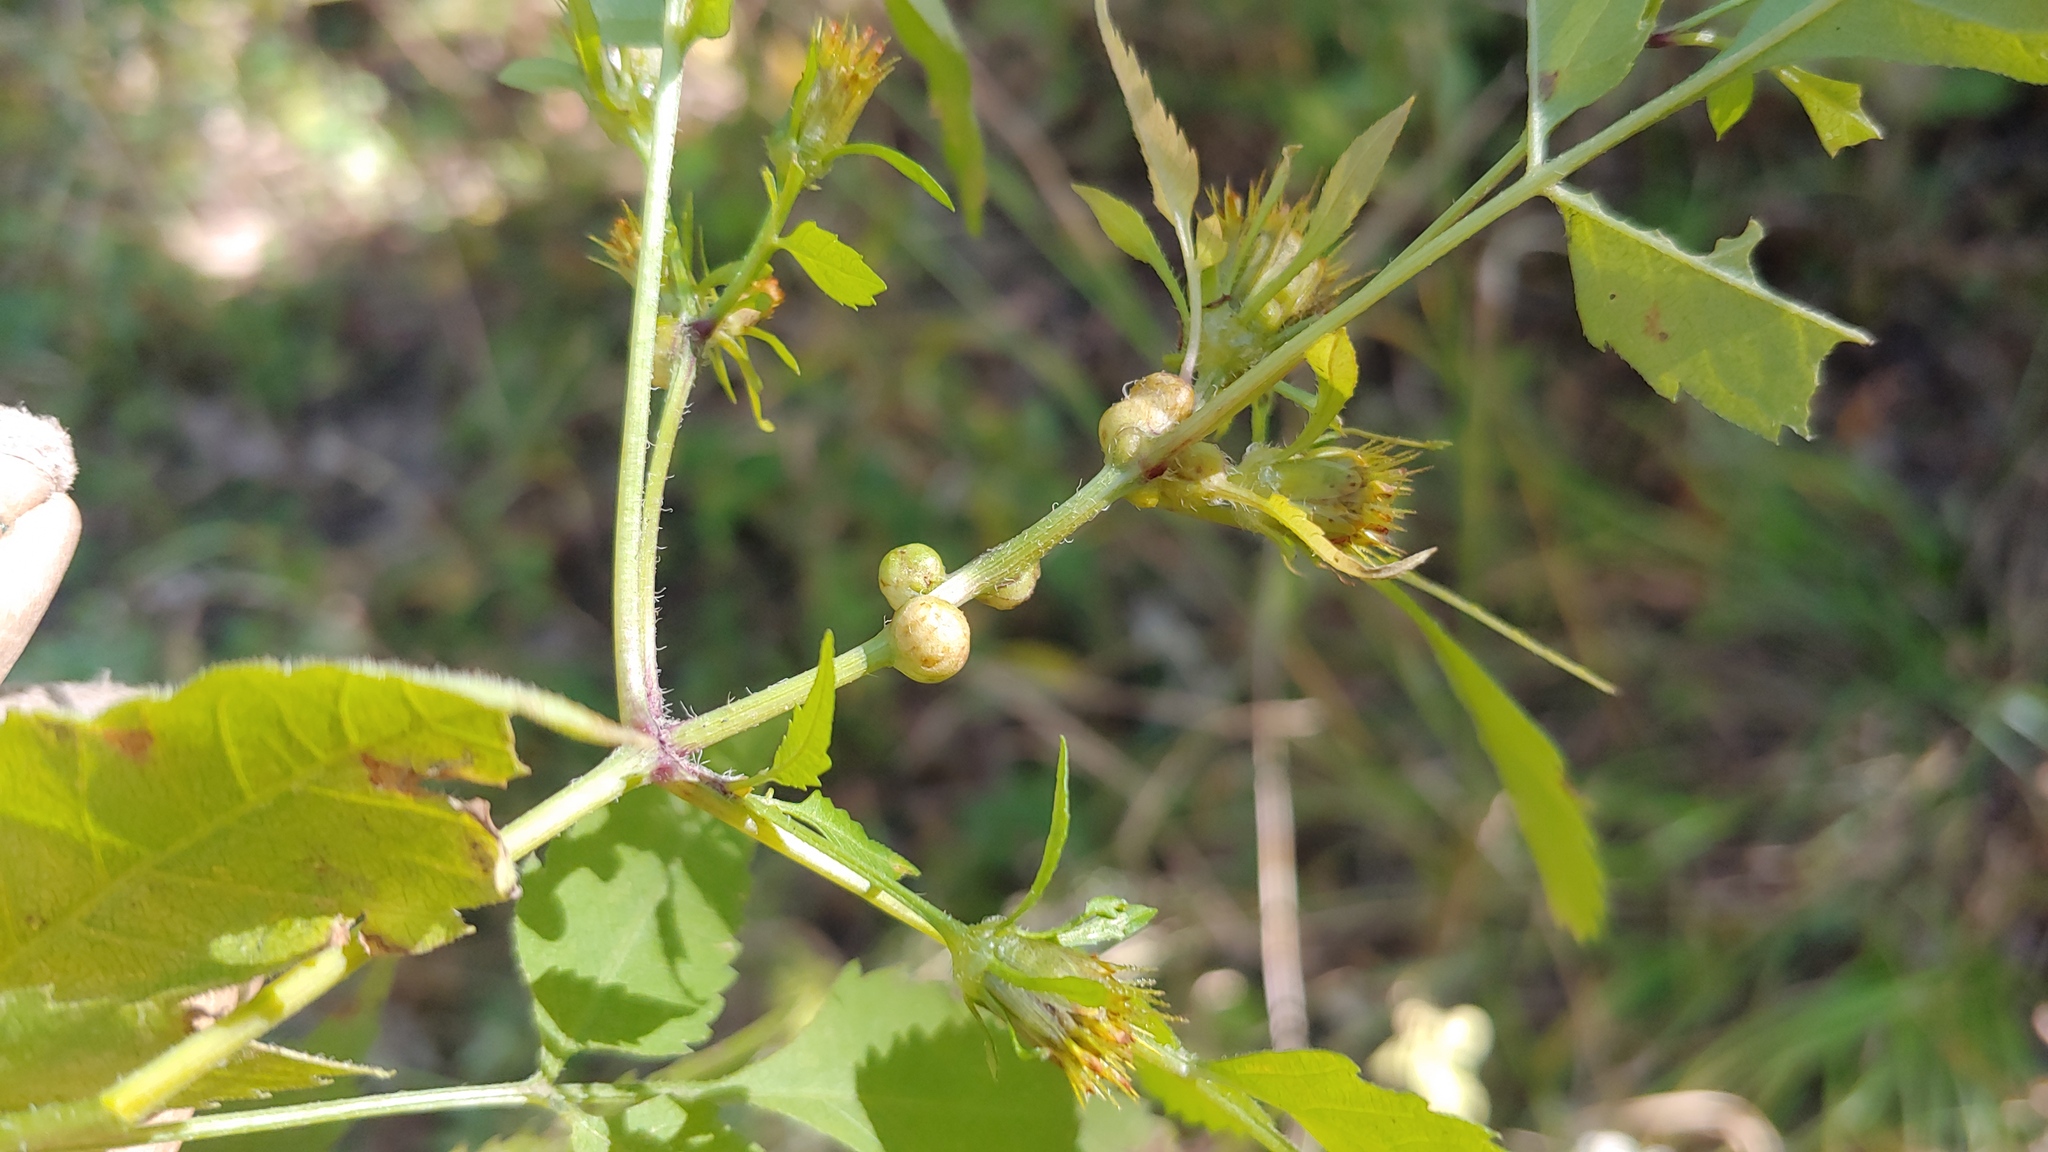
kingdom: Animalia
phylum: Arthropoda
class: Insecta
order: Diptera
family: Cecidomyiidae
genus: Asphondylia
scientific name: Asphondylia ovata
